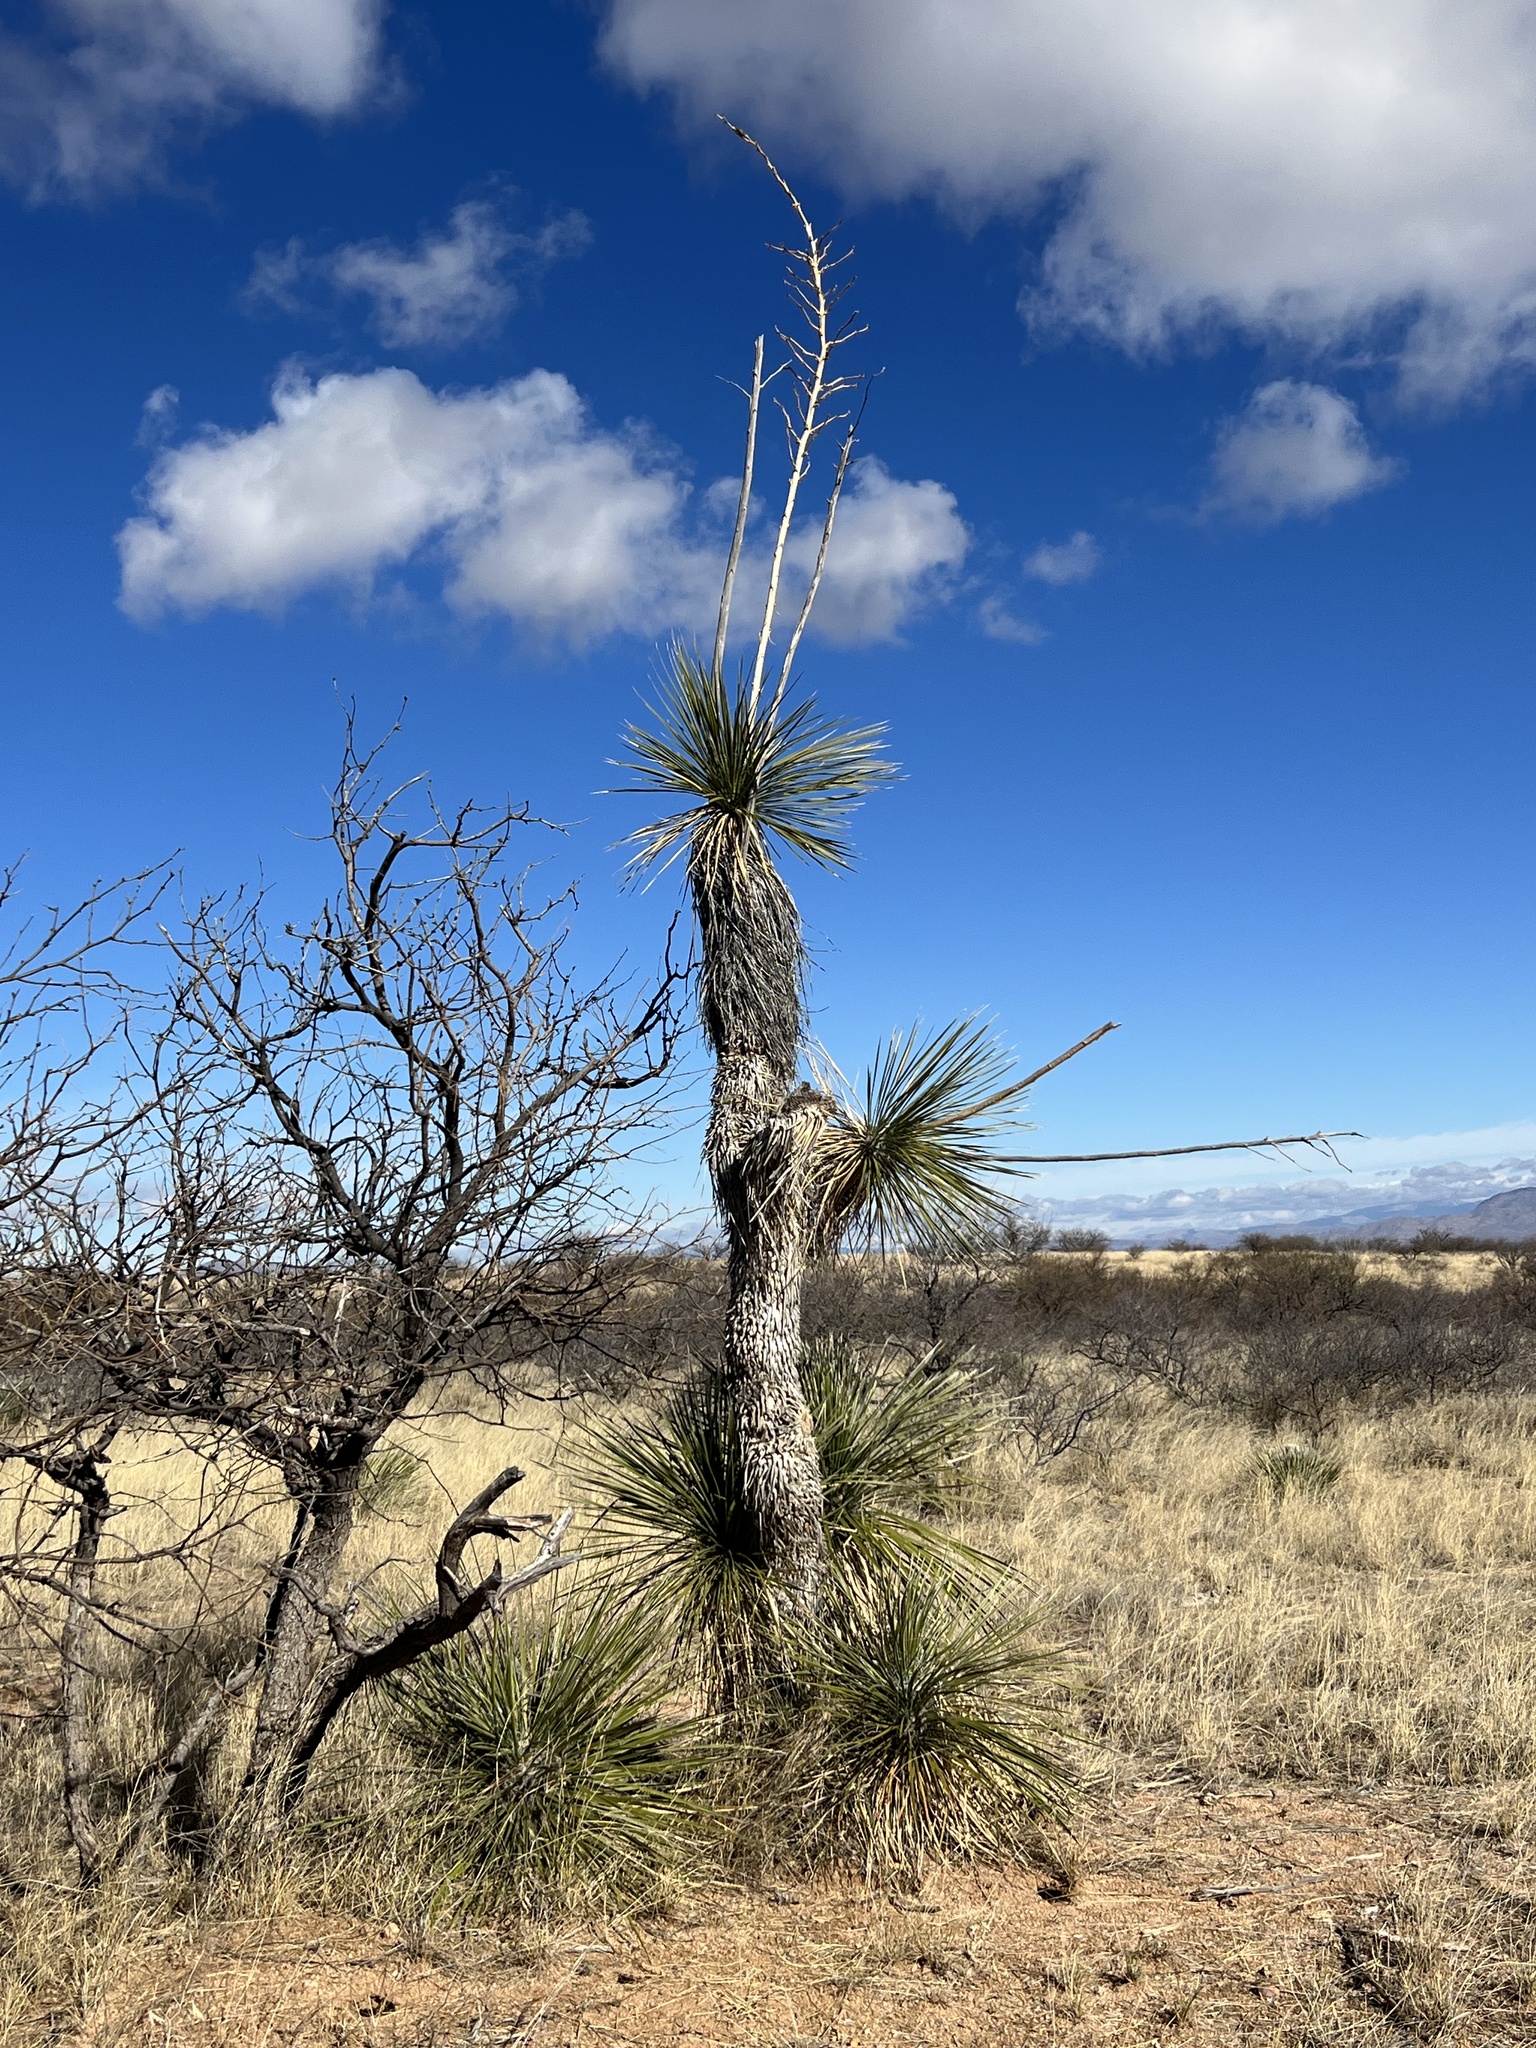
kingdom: Plantae
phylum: Tracheophyta
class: Liliopsida
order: Asparagales
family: Asparagaceae
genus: Yucca
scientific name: Yucca elata
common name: Palmella
